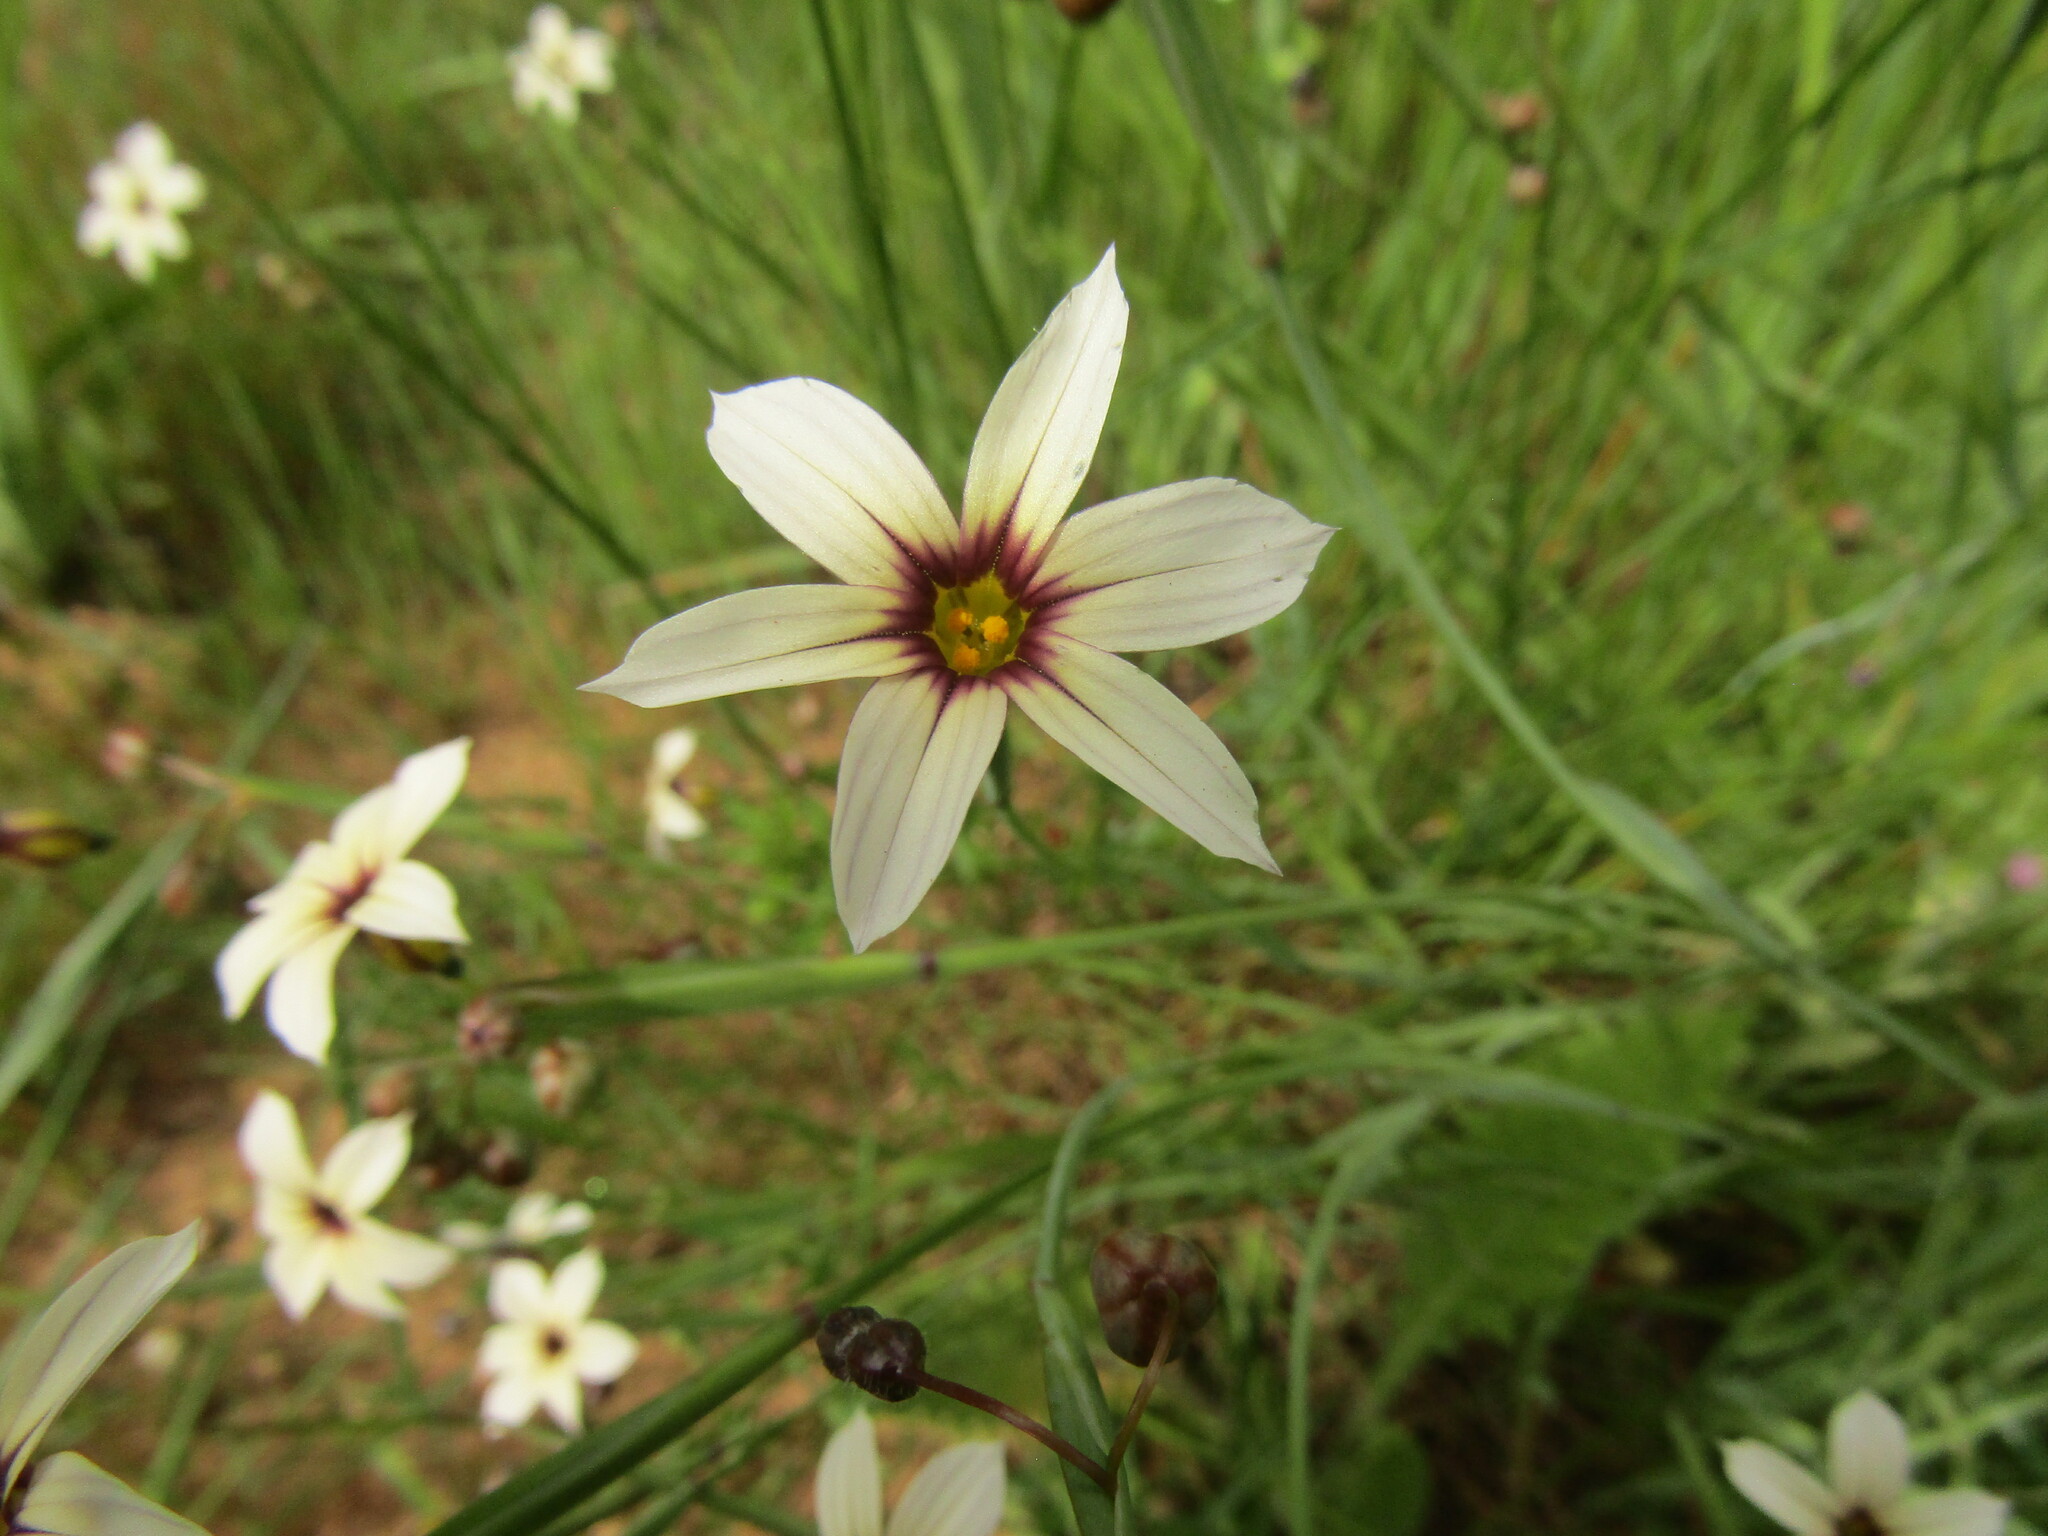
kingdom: Plantae
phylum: Tracheophyta
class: Liliopsida
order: Asparagales
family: Iridaceae
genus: Sisyrinchium
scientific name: Sisyrinchium chilense
